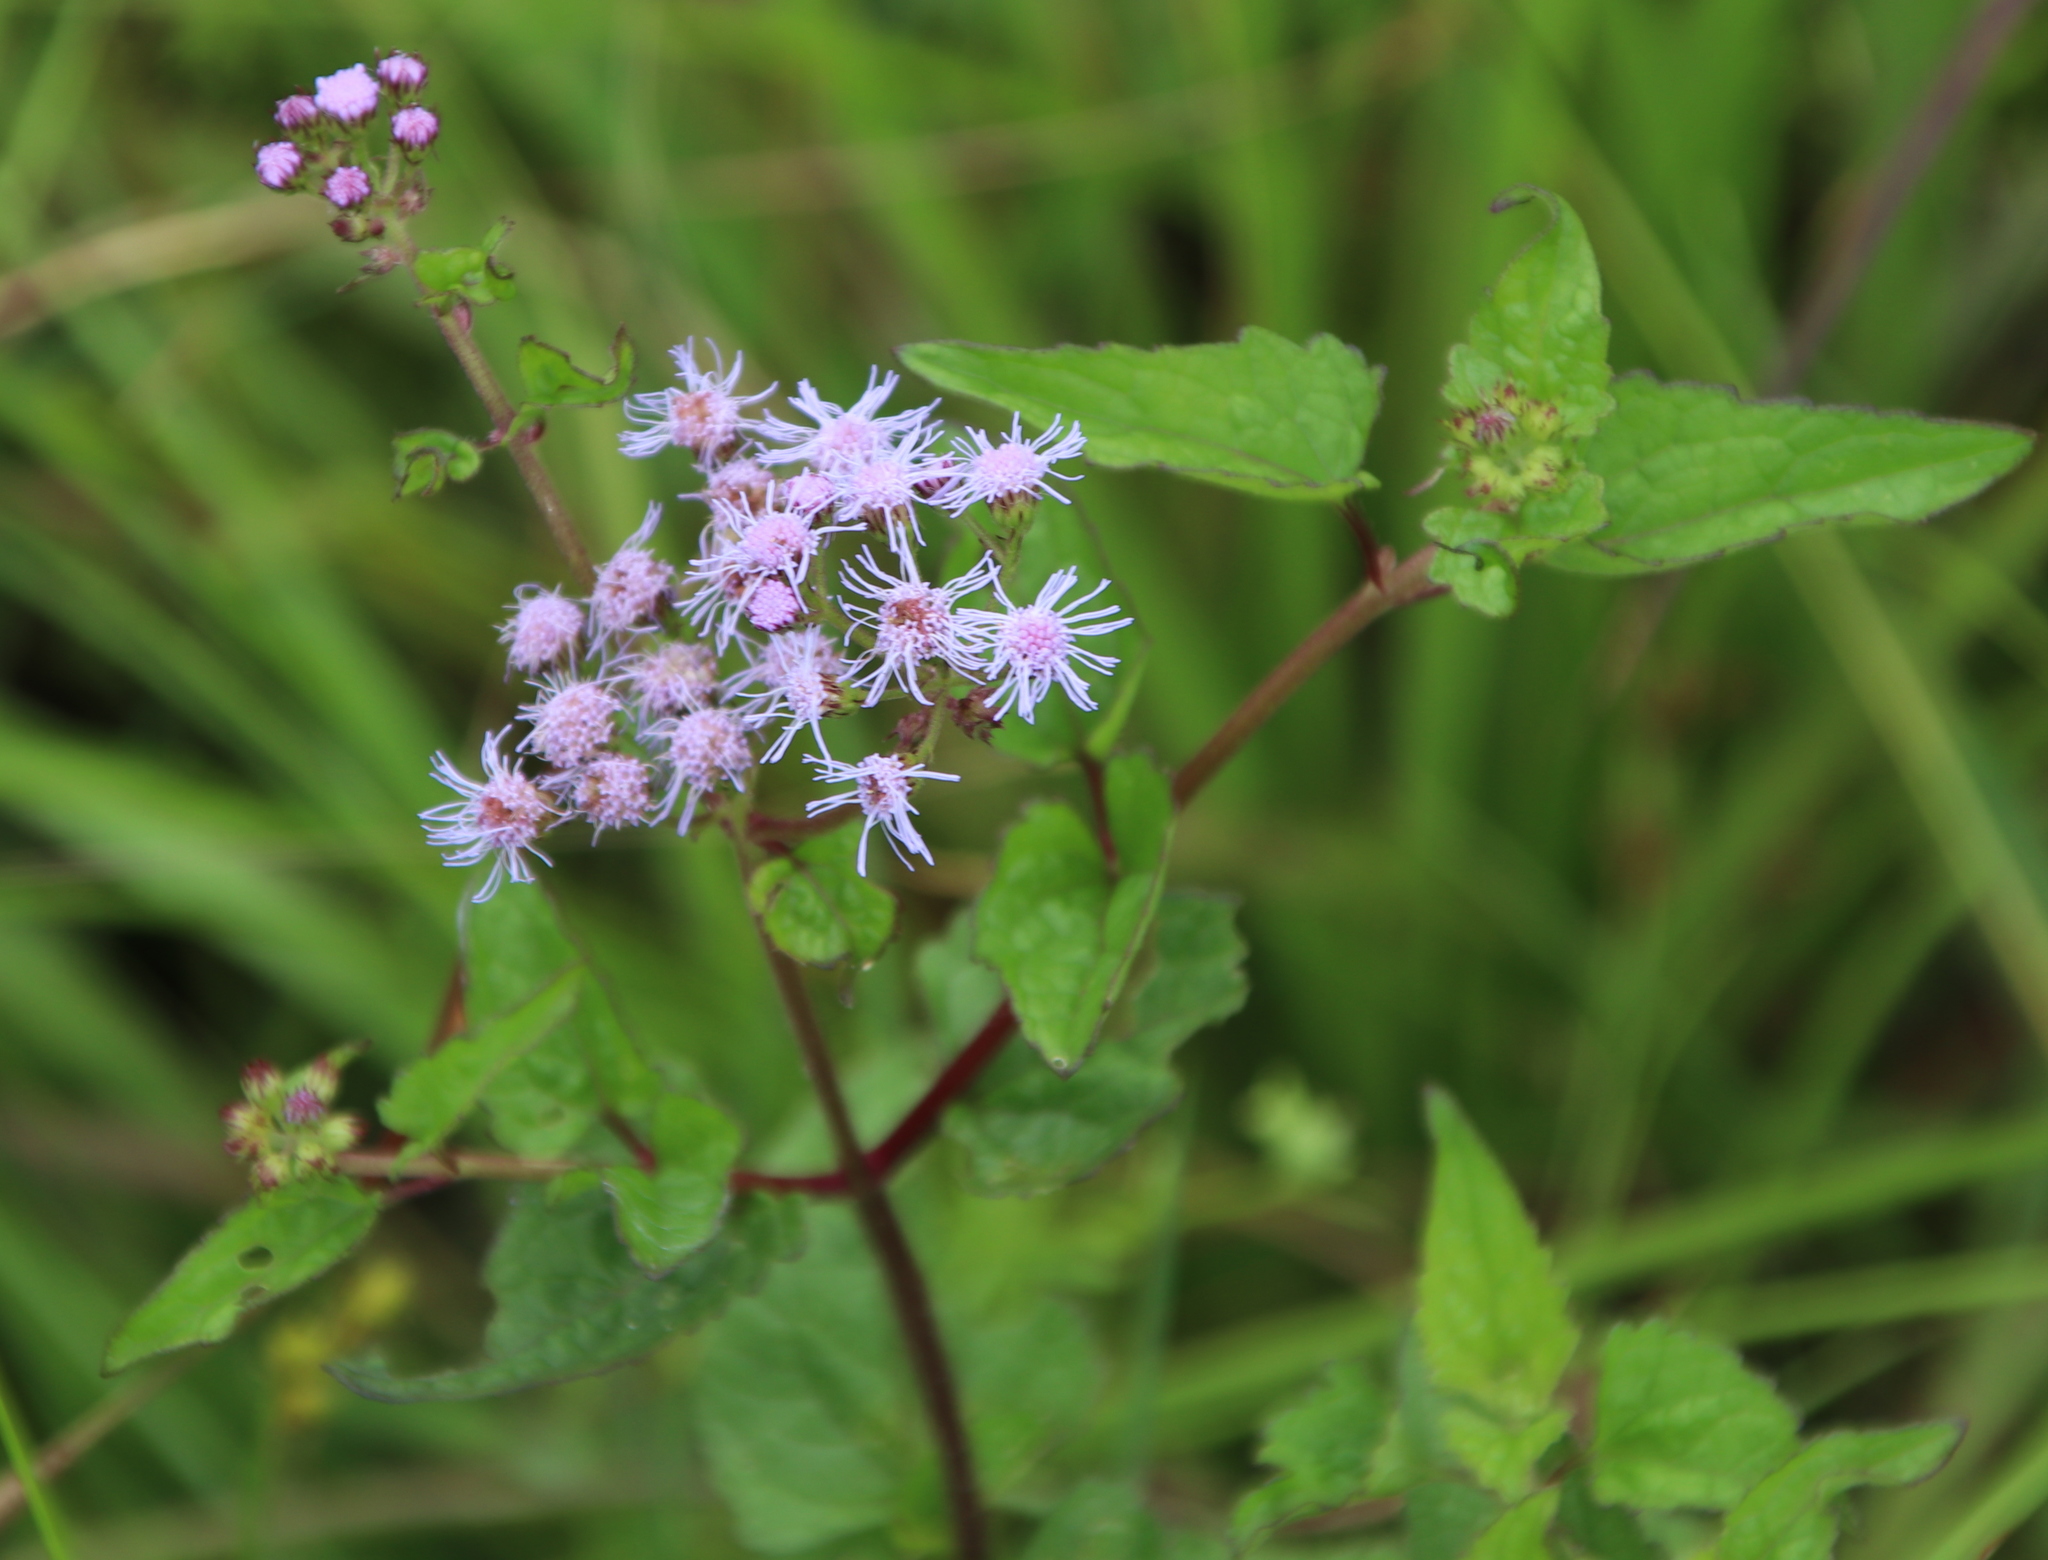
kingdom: Plantae
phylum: Tracheophyta
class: Magnoliopsida
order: Asterales
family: Asteraceae
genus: Conoclinium
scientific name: Conoclinium coelestinum
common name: Blue mistflower
